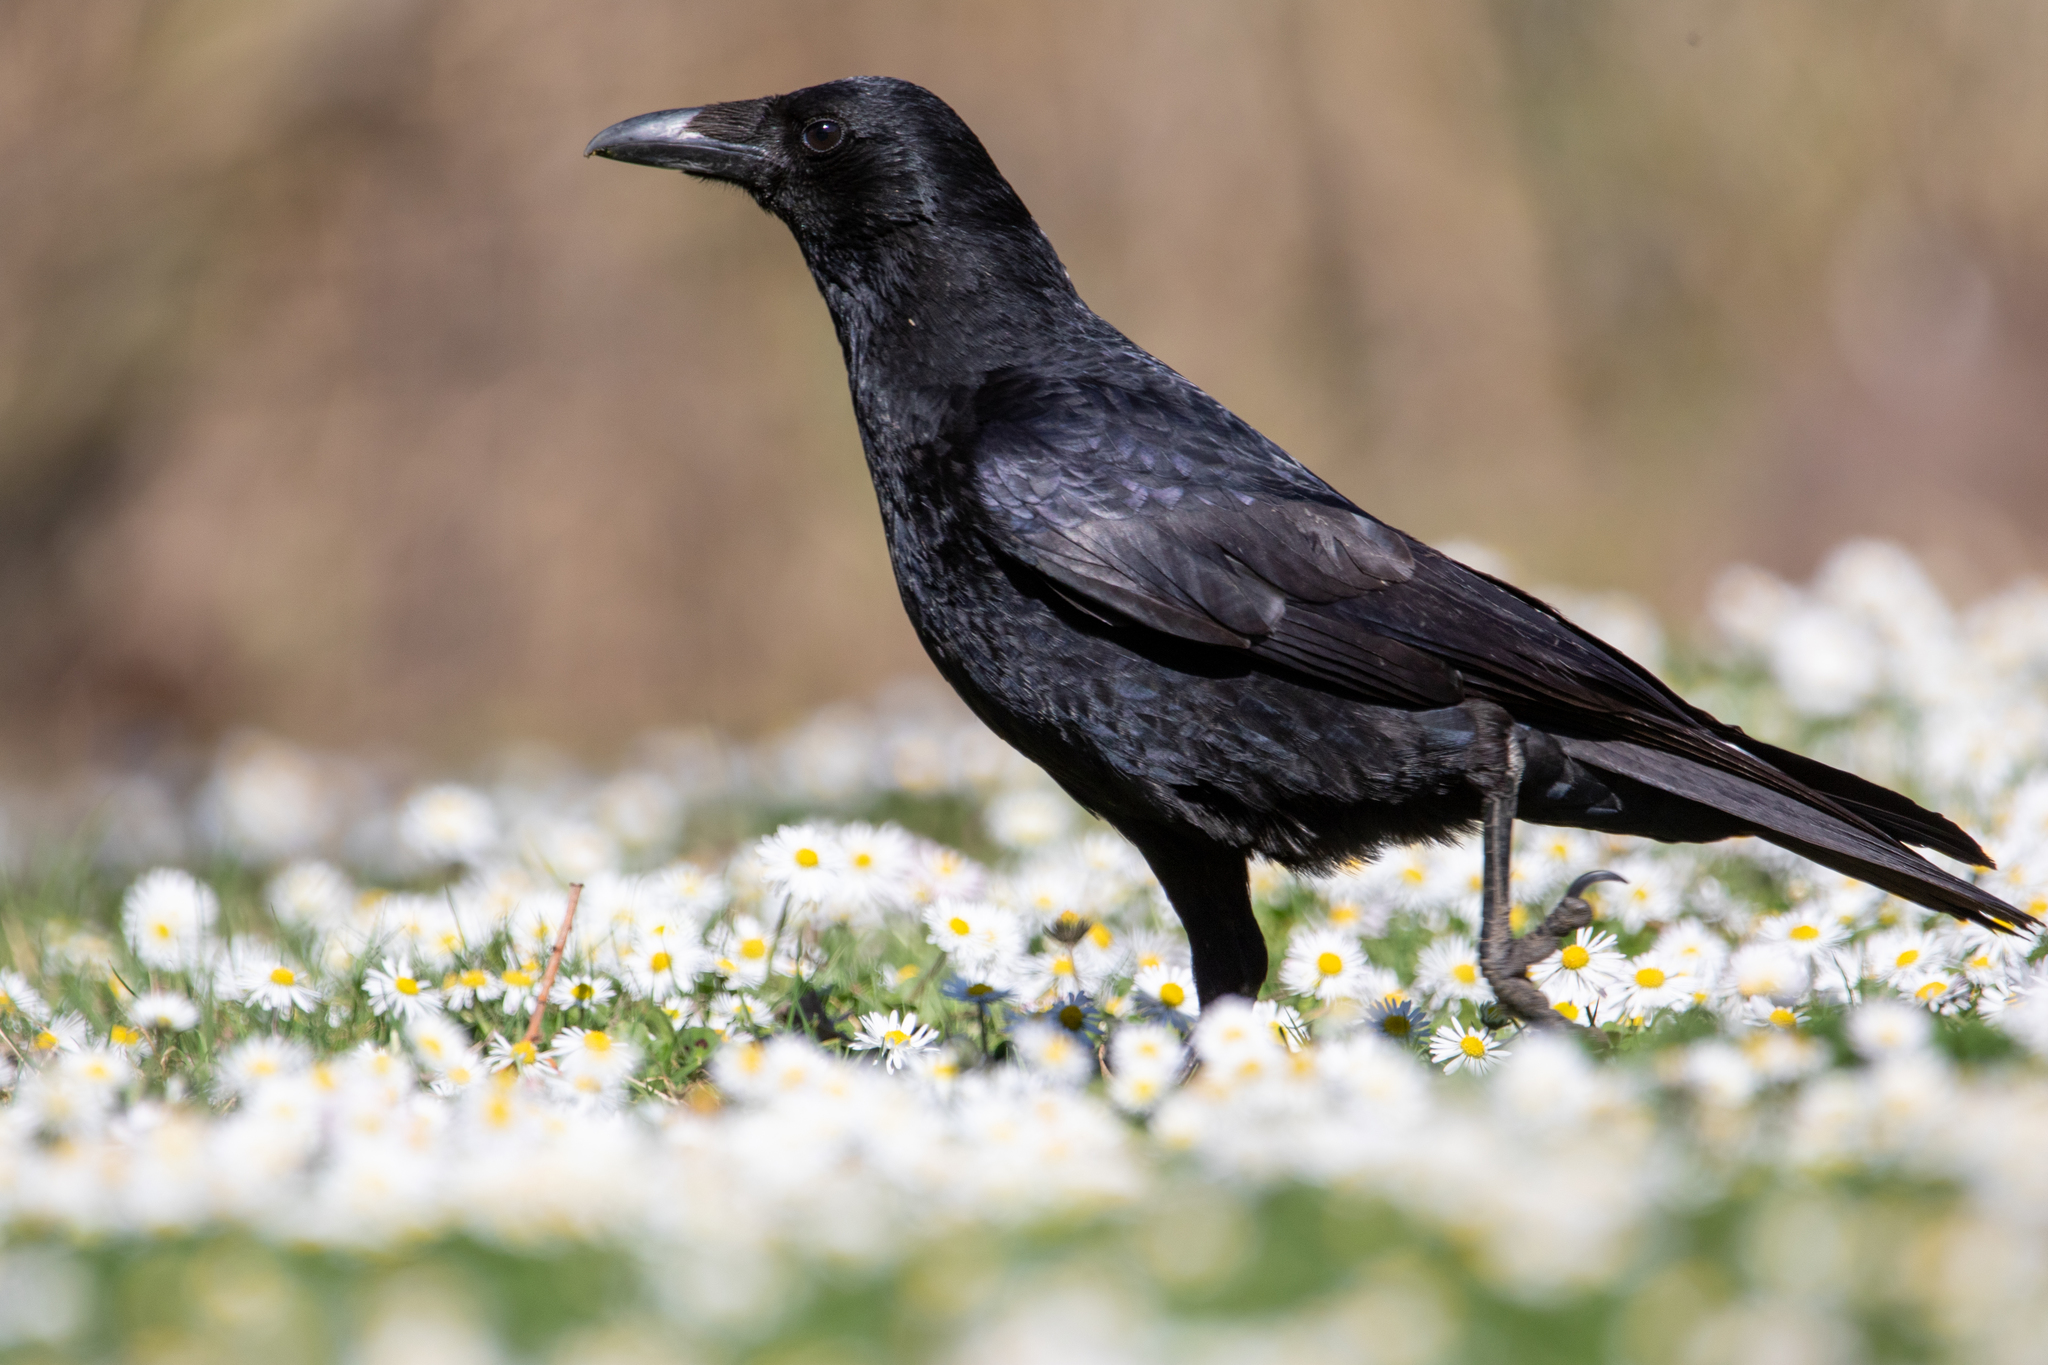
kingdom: Animalia
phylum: Chordata
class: Aves
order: Passeriformes
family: Corvidae
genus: Corvus
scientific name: Corvus corone
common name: Carrion crow
